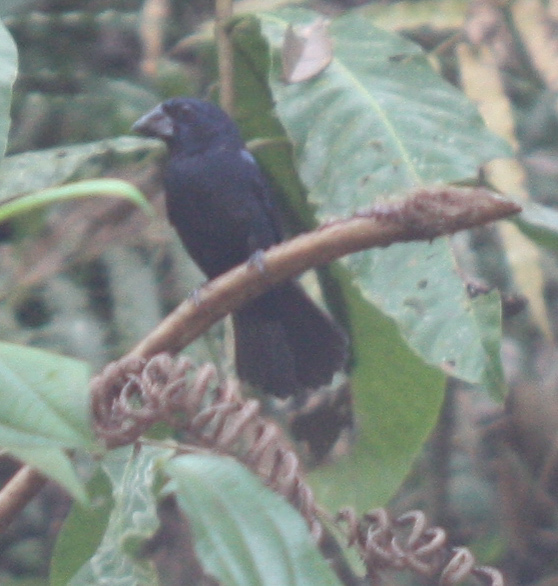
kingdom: Animalia
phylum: Chordata
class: Aves
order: Passeriformes
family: Cardinalidae
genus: Cyanocompsa
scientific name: Cyanocompsa cyanoides
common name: Blue-black grosbeak
